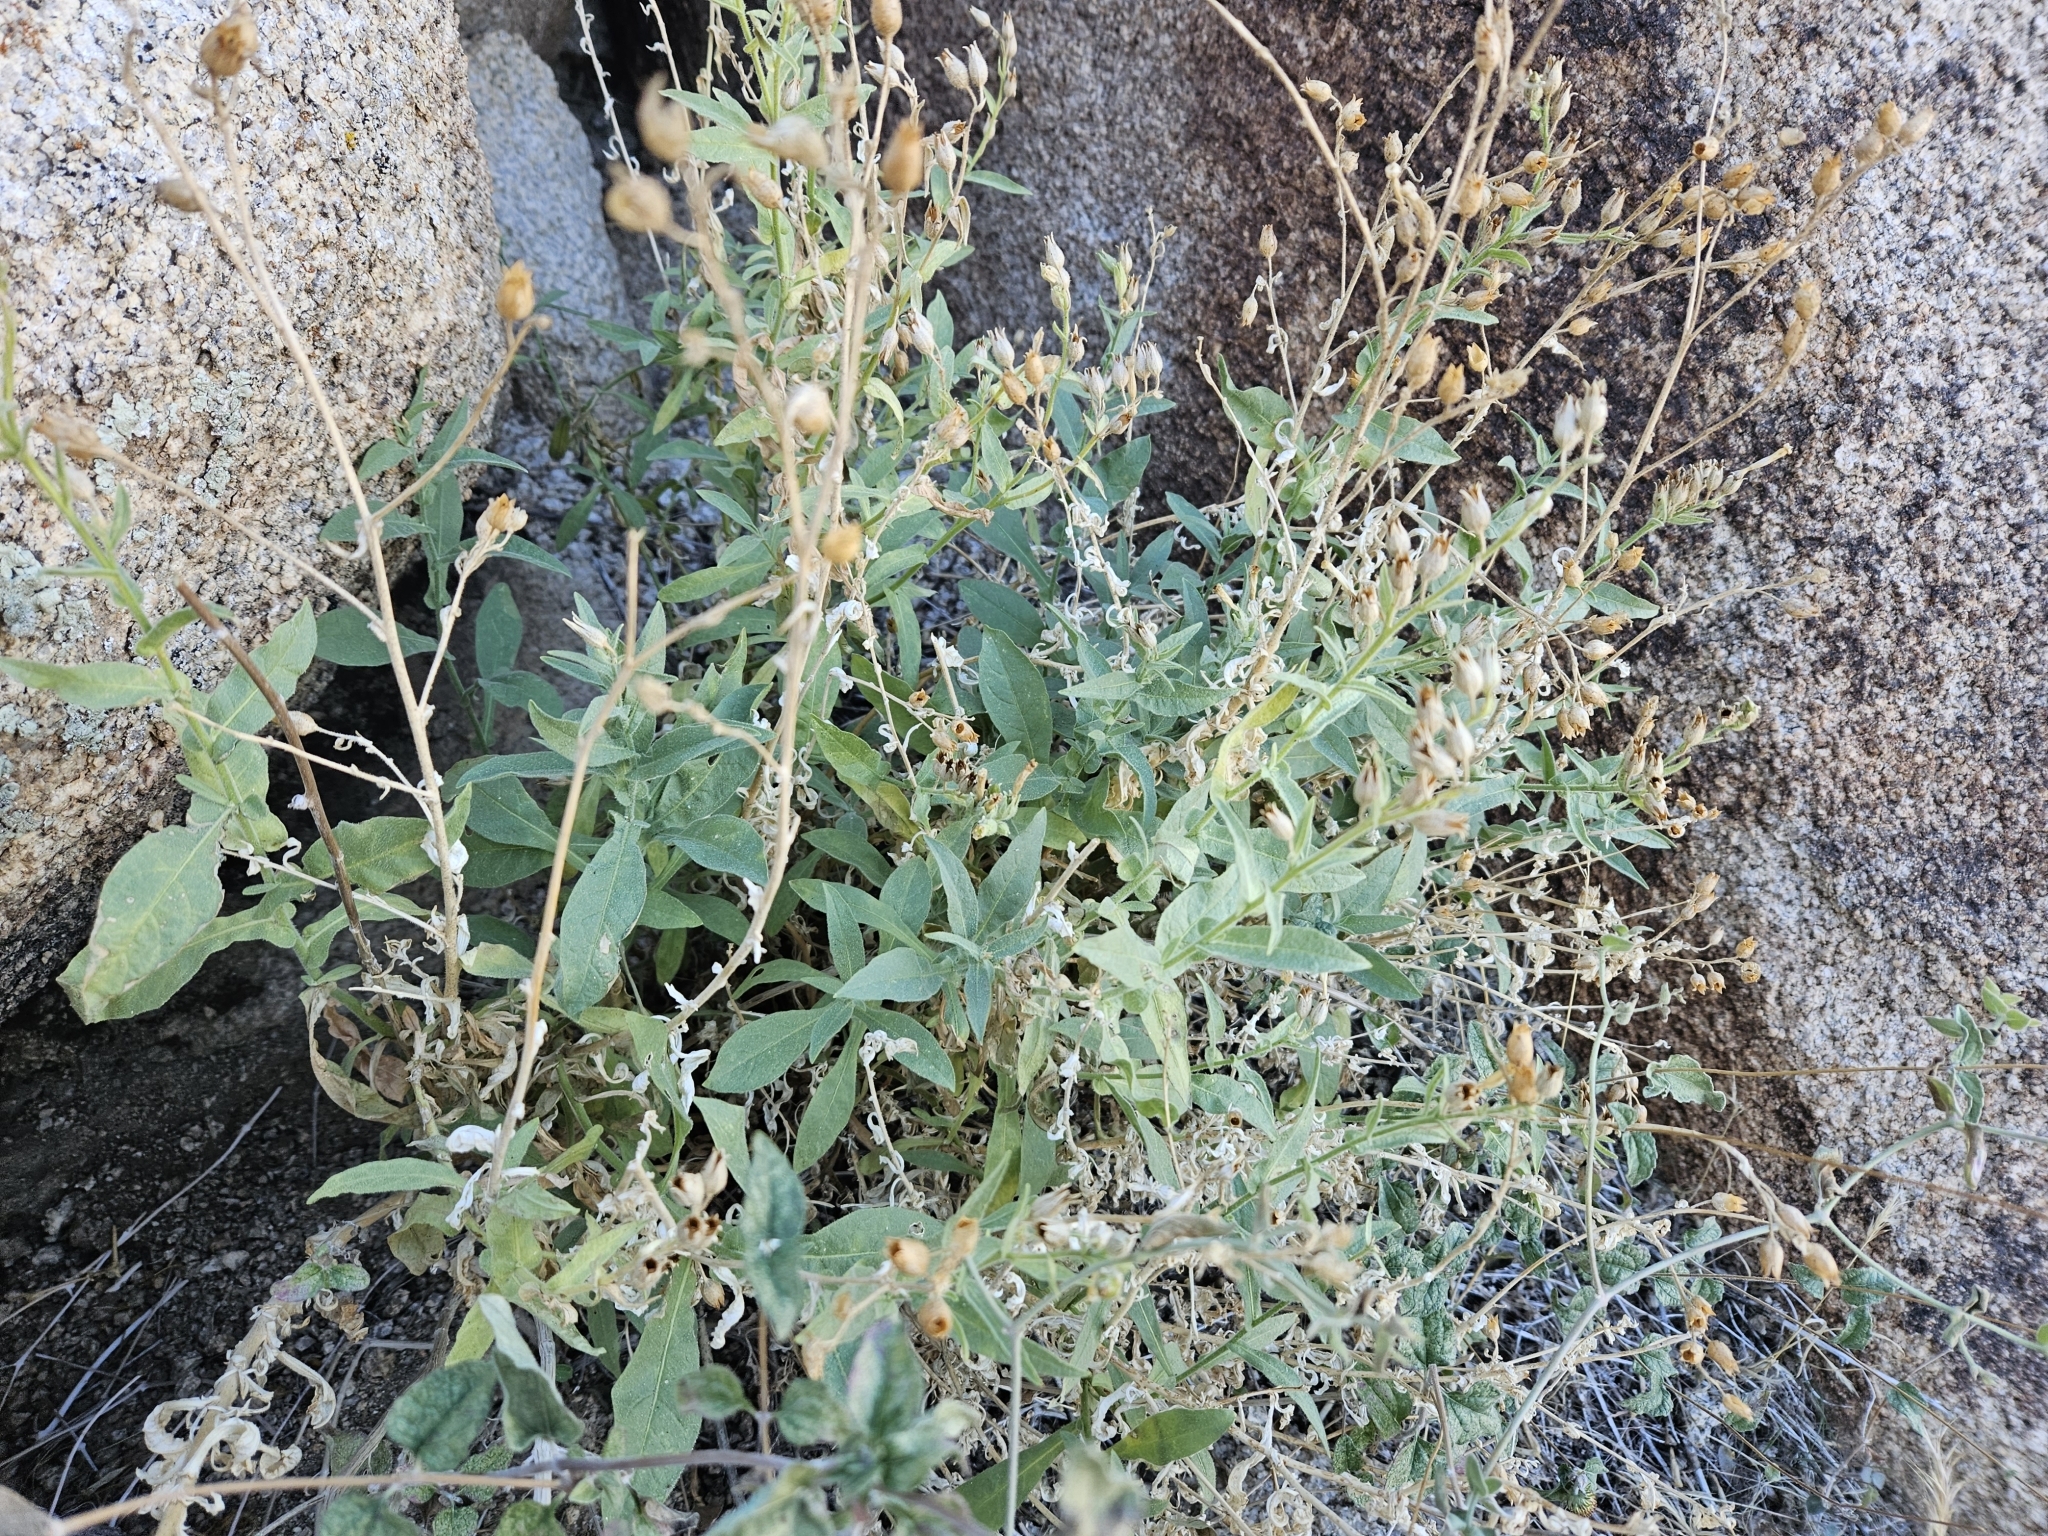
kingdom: Plantae
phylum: Tracheophyta
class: Magnoliopsida
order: Solanales
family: Solanaceae
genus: Nicotiana
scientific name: Nicotiana obtusifolia
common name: Desert tobacco
